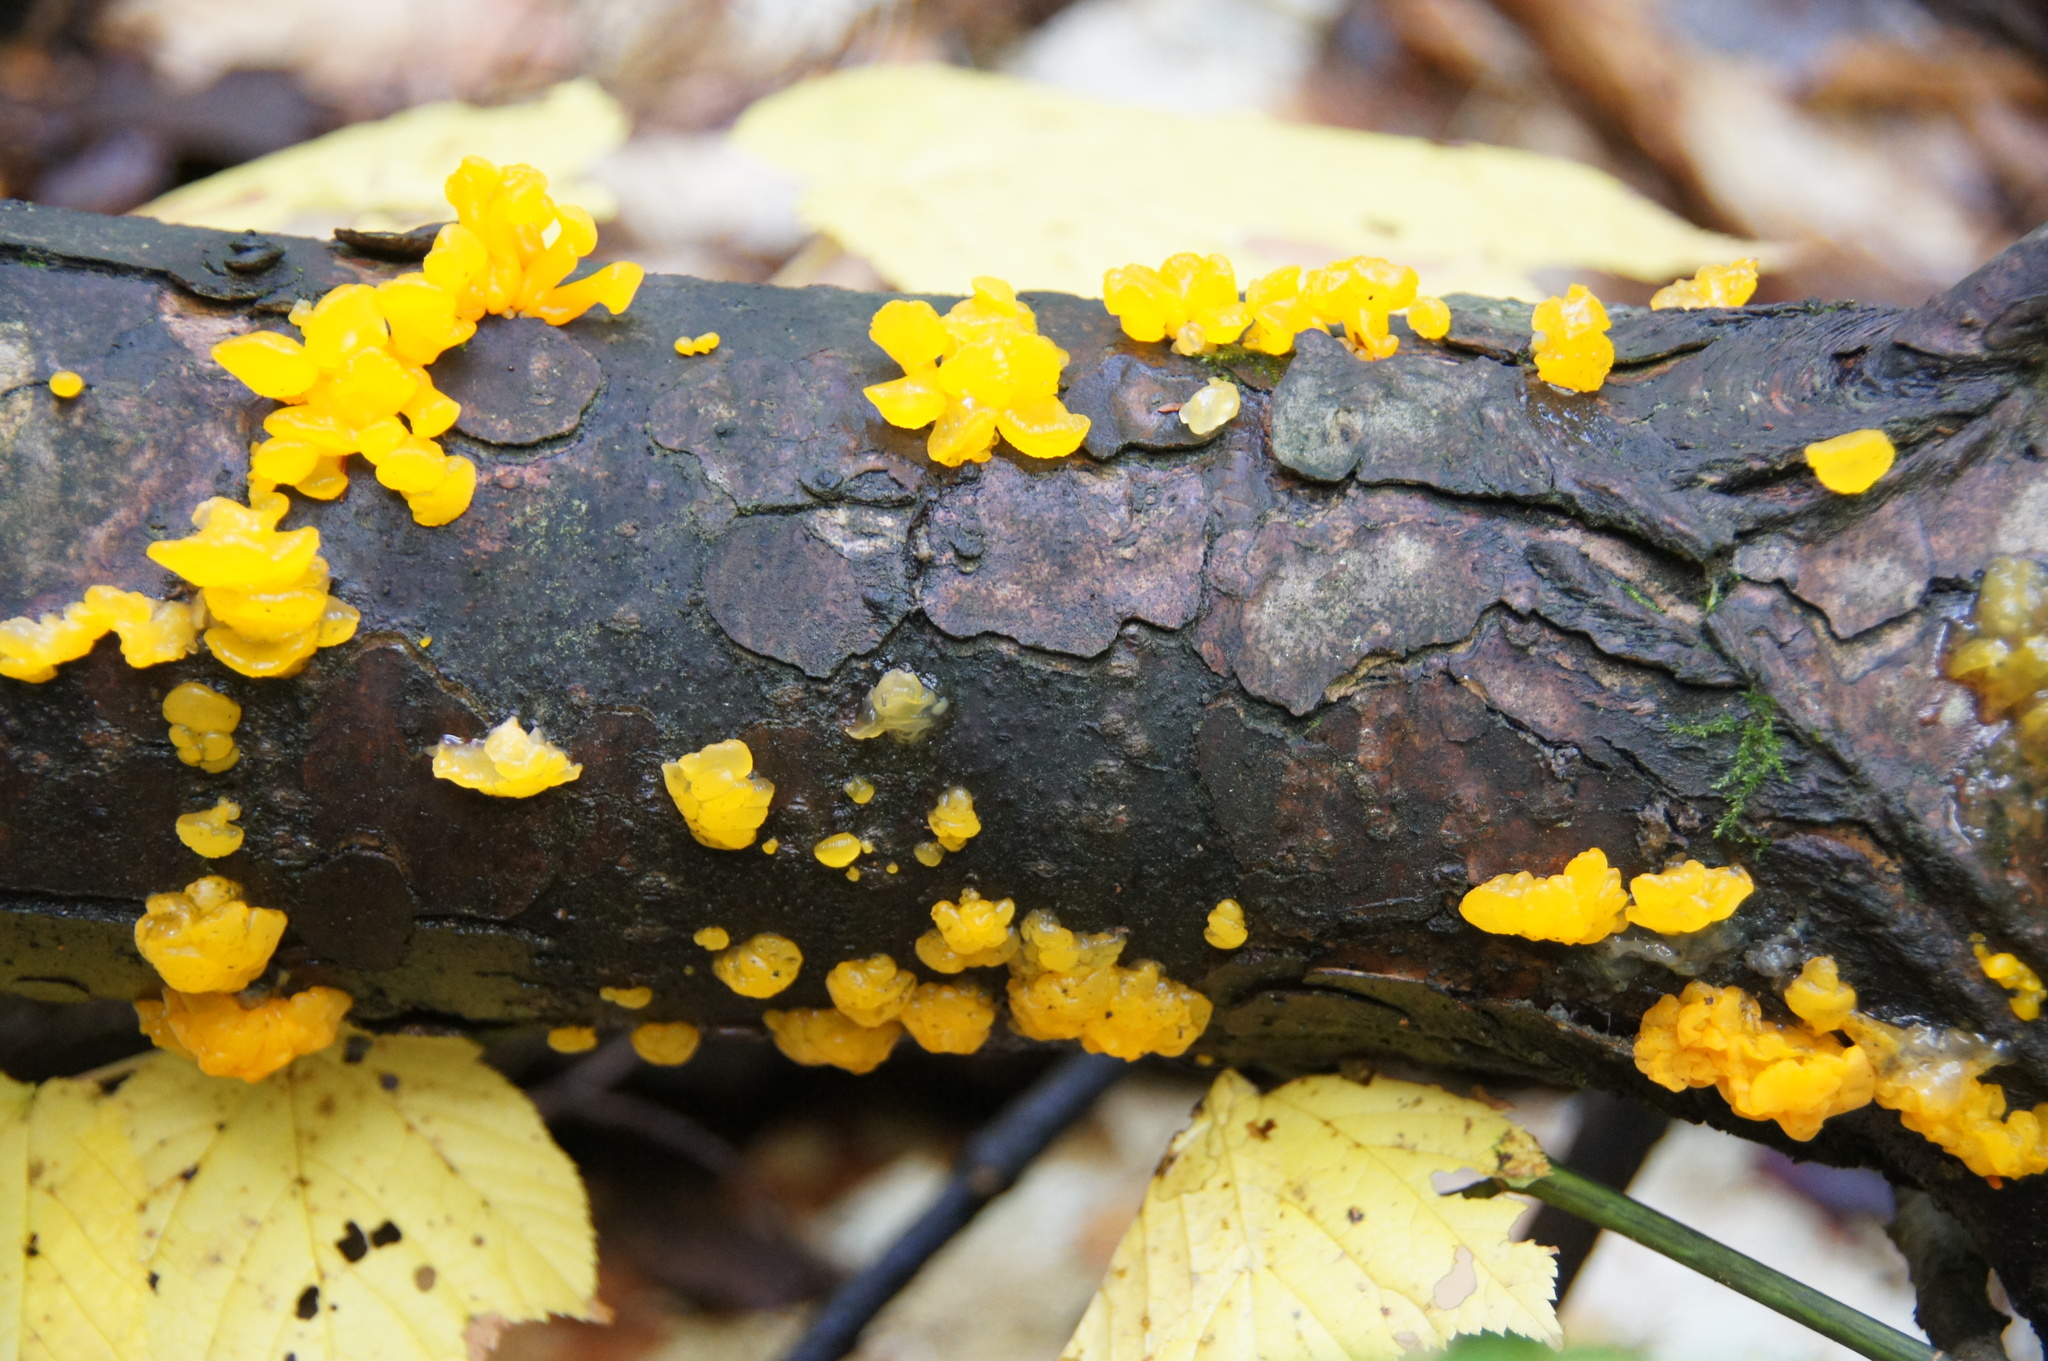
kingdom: Fungi
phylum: Basidiomycota
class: Dacrymycetes
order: Dacrymycetales
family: Dacrymycetaceae
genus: Dacrymyces
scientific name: Dacrymyces chrysospermus
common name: Orange jelly spot
